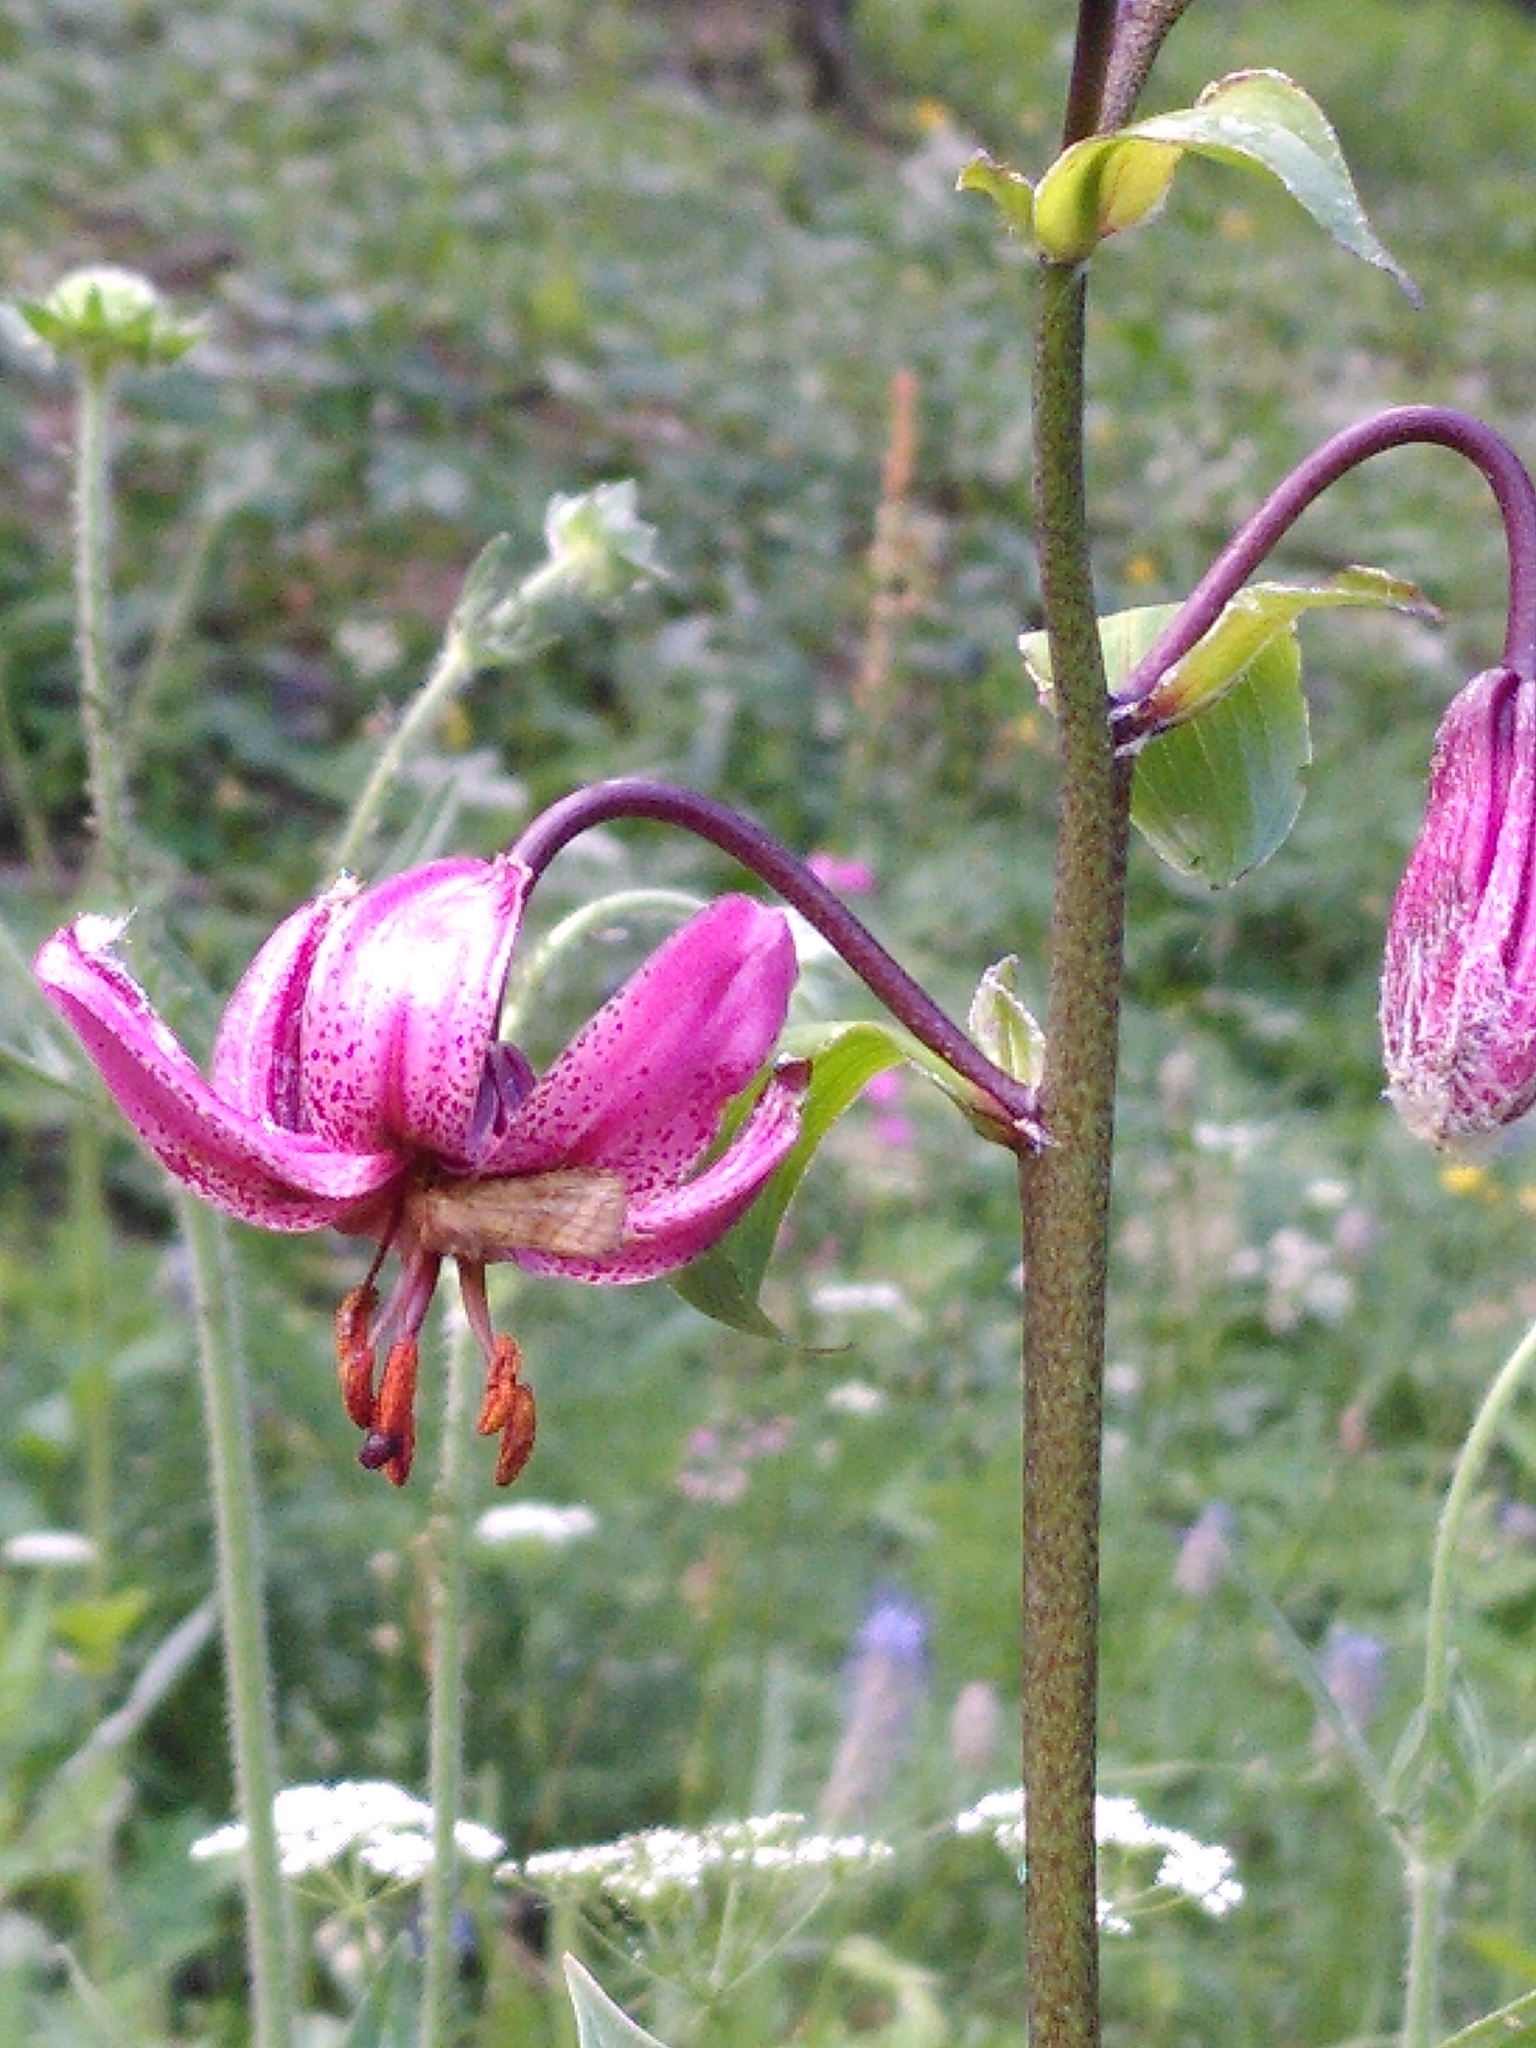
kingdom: Plantae
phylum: Tracheophyta
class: Liliopsida
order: Liliales
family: Liliaceae
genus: Lilium
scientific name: Lilium martagon
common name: Martagon lily
